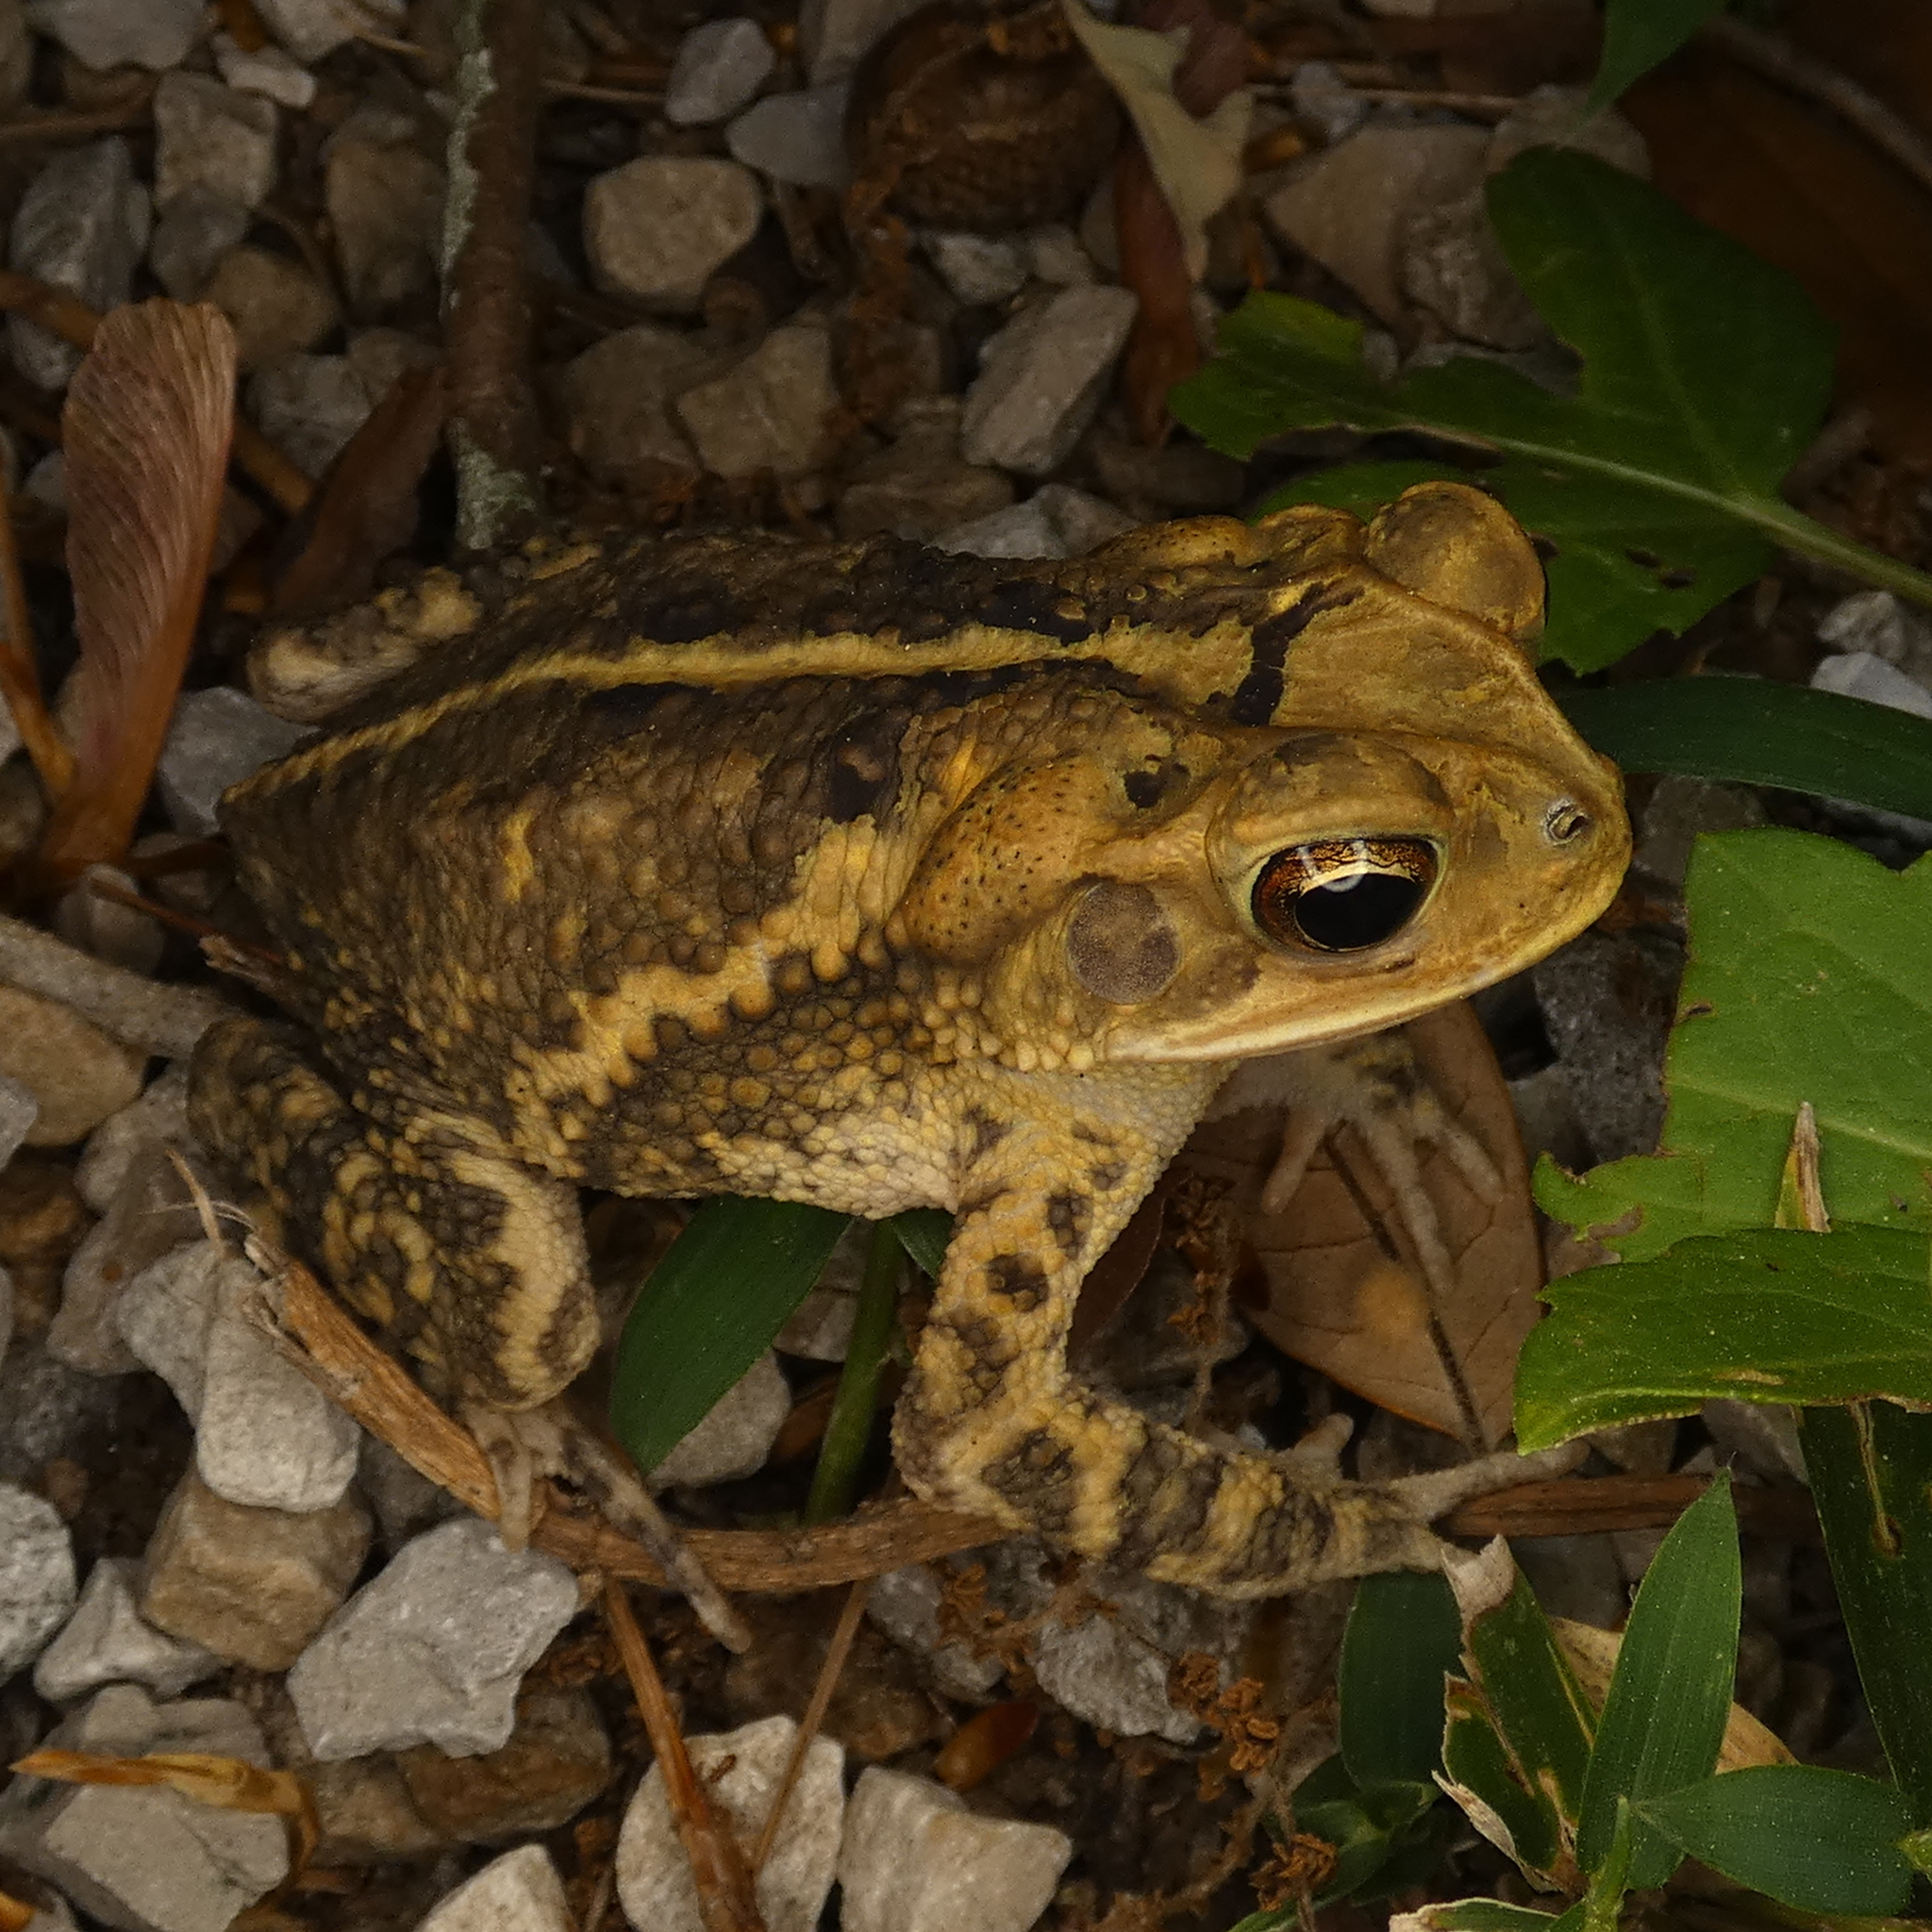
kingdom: Animalia
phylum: Chordata
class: Amphibia
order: Anura
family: Bufonidae
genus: Incilius
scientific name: Incilius nebulifer
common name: Gulf coast toad
